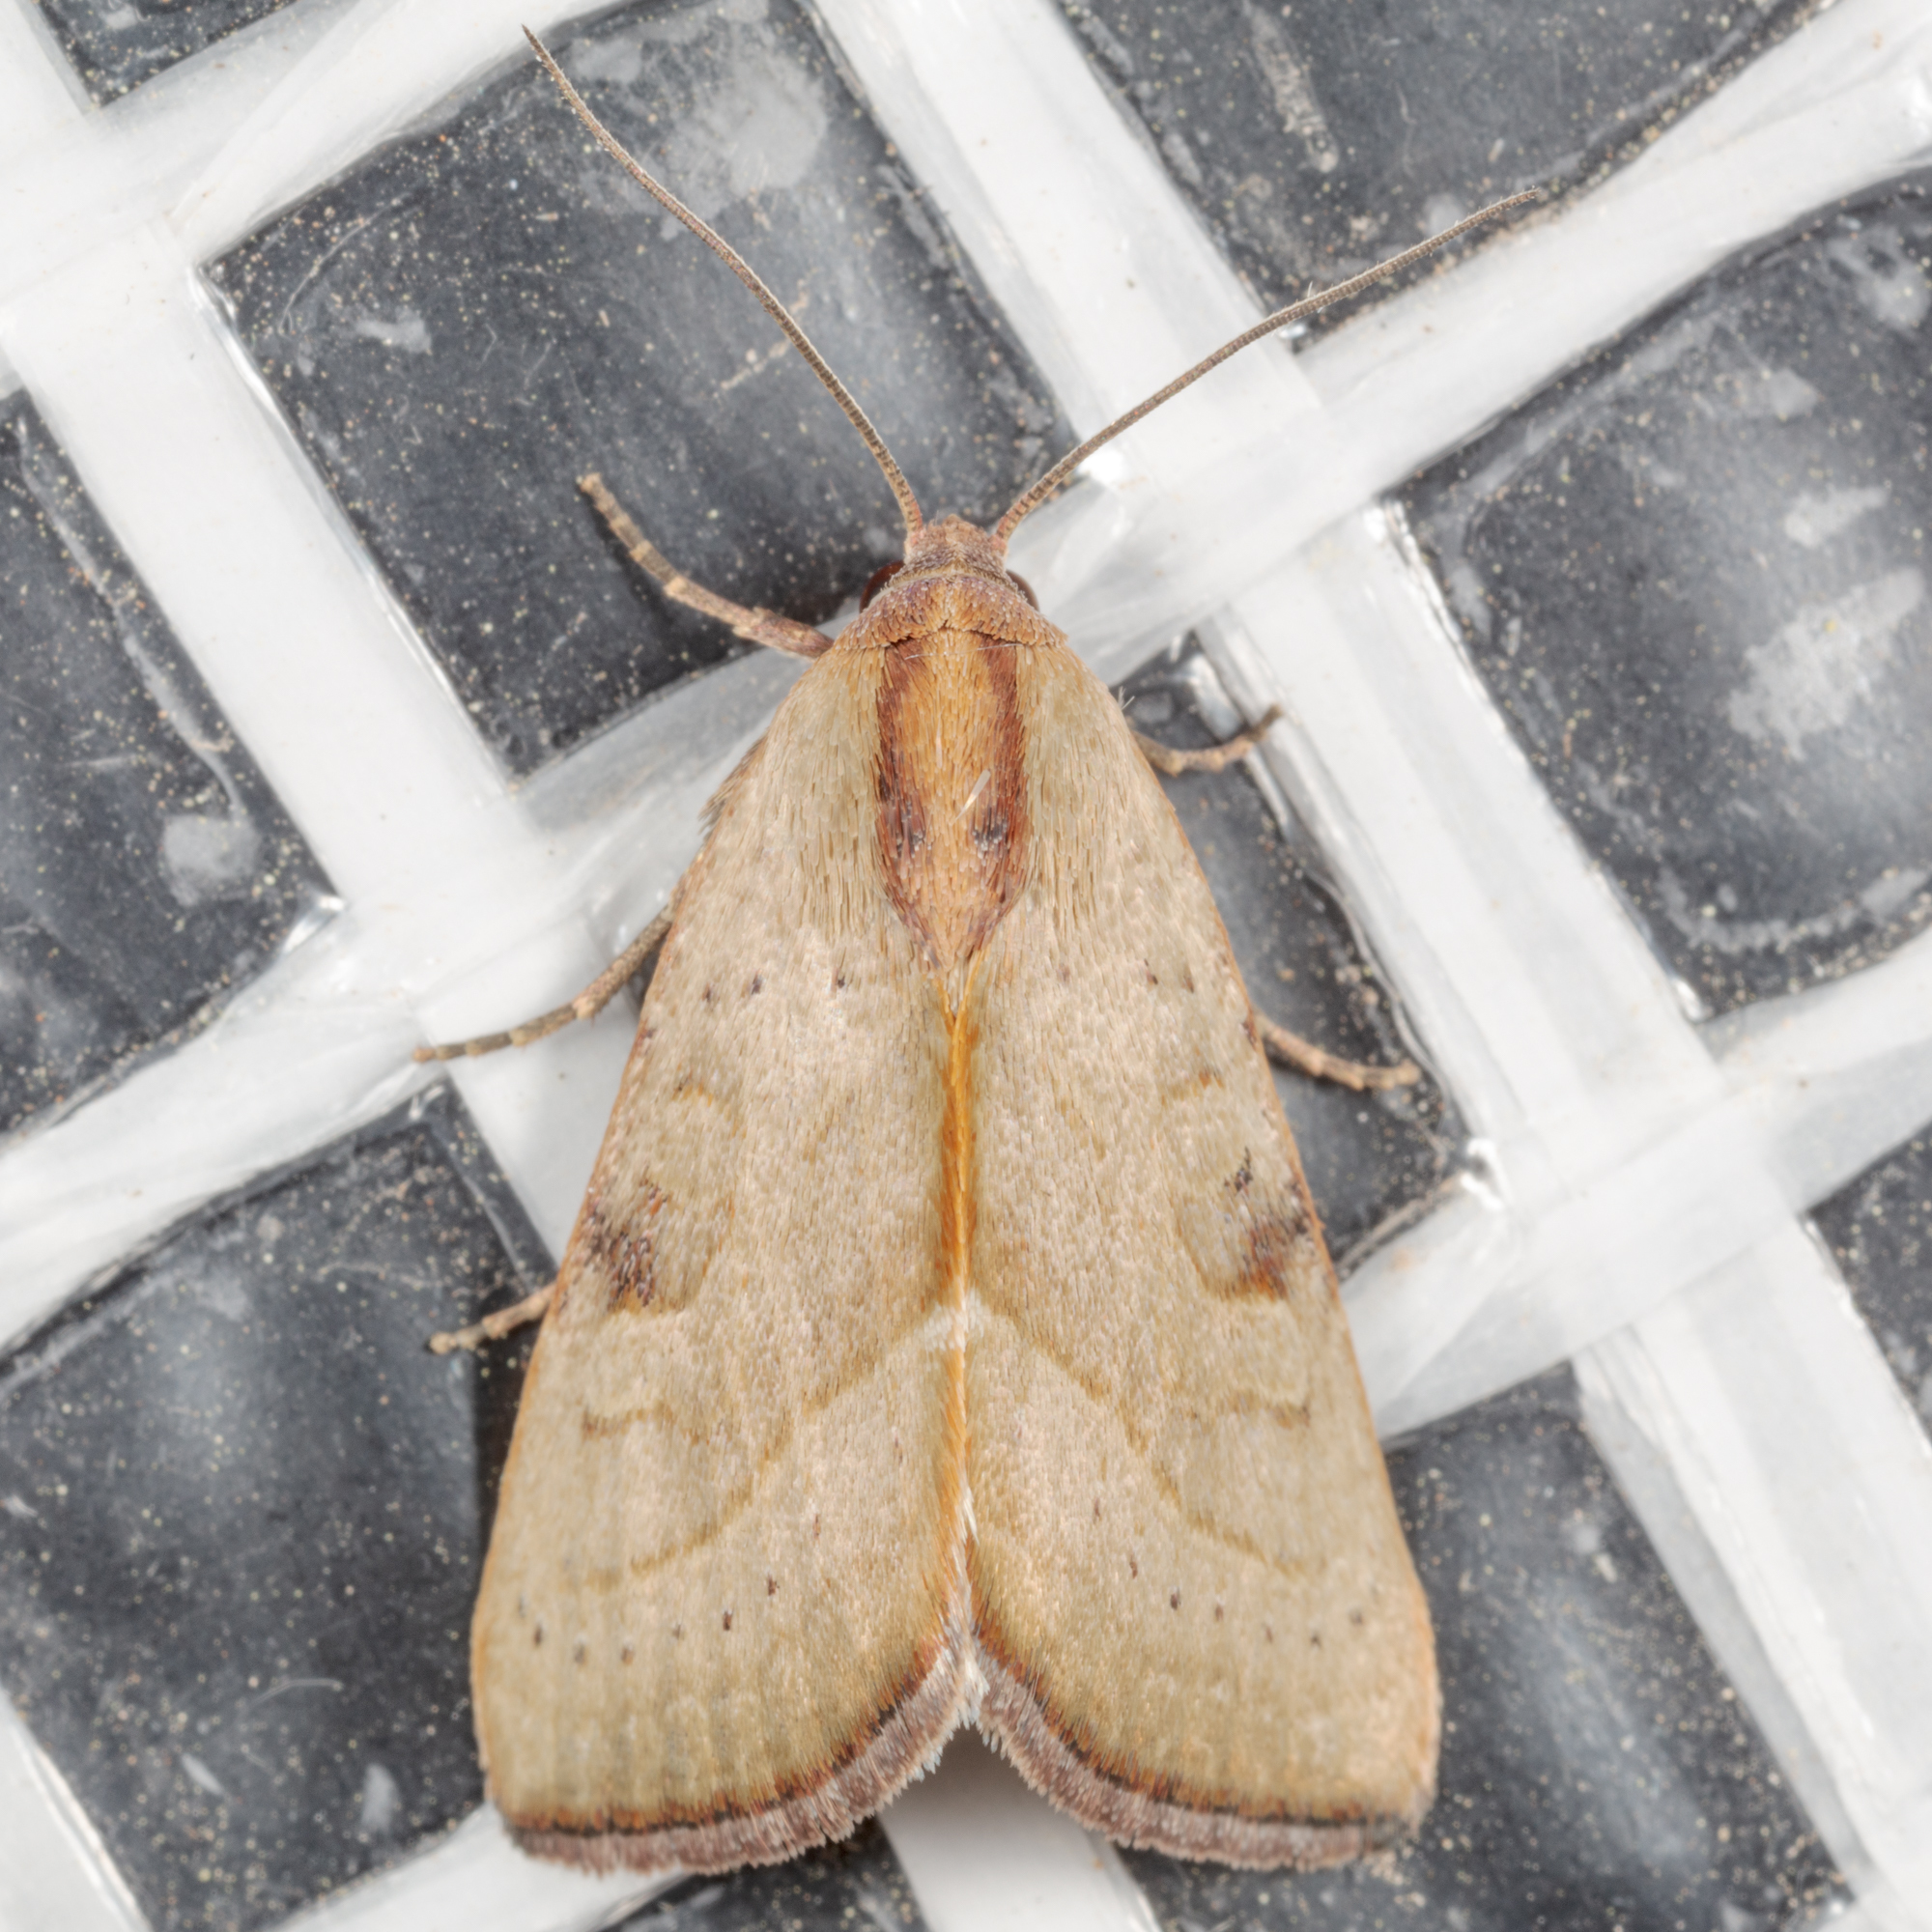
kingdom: Animalia
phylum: Arthropoda
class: Insecta
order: Lepidoptera
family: Noctuidae
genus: Galgula
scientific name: Galgula partita
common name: Wedgeling
